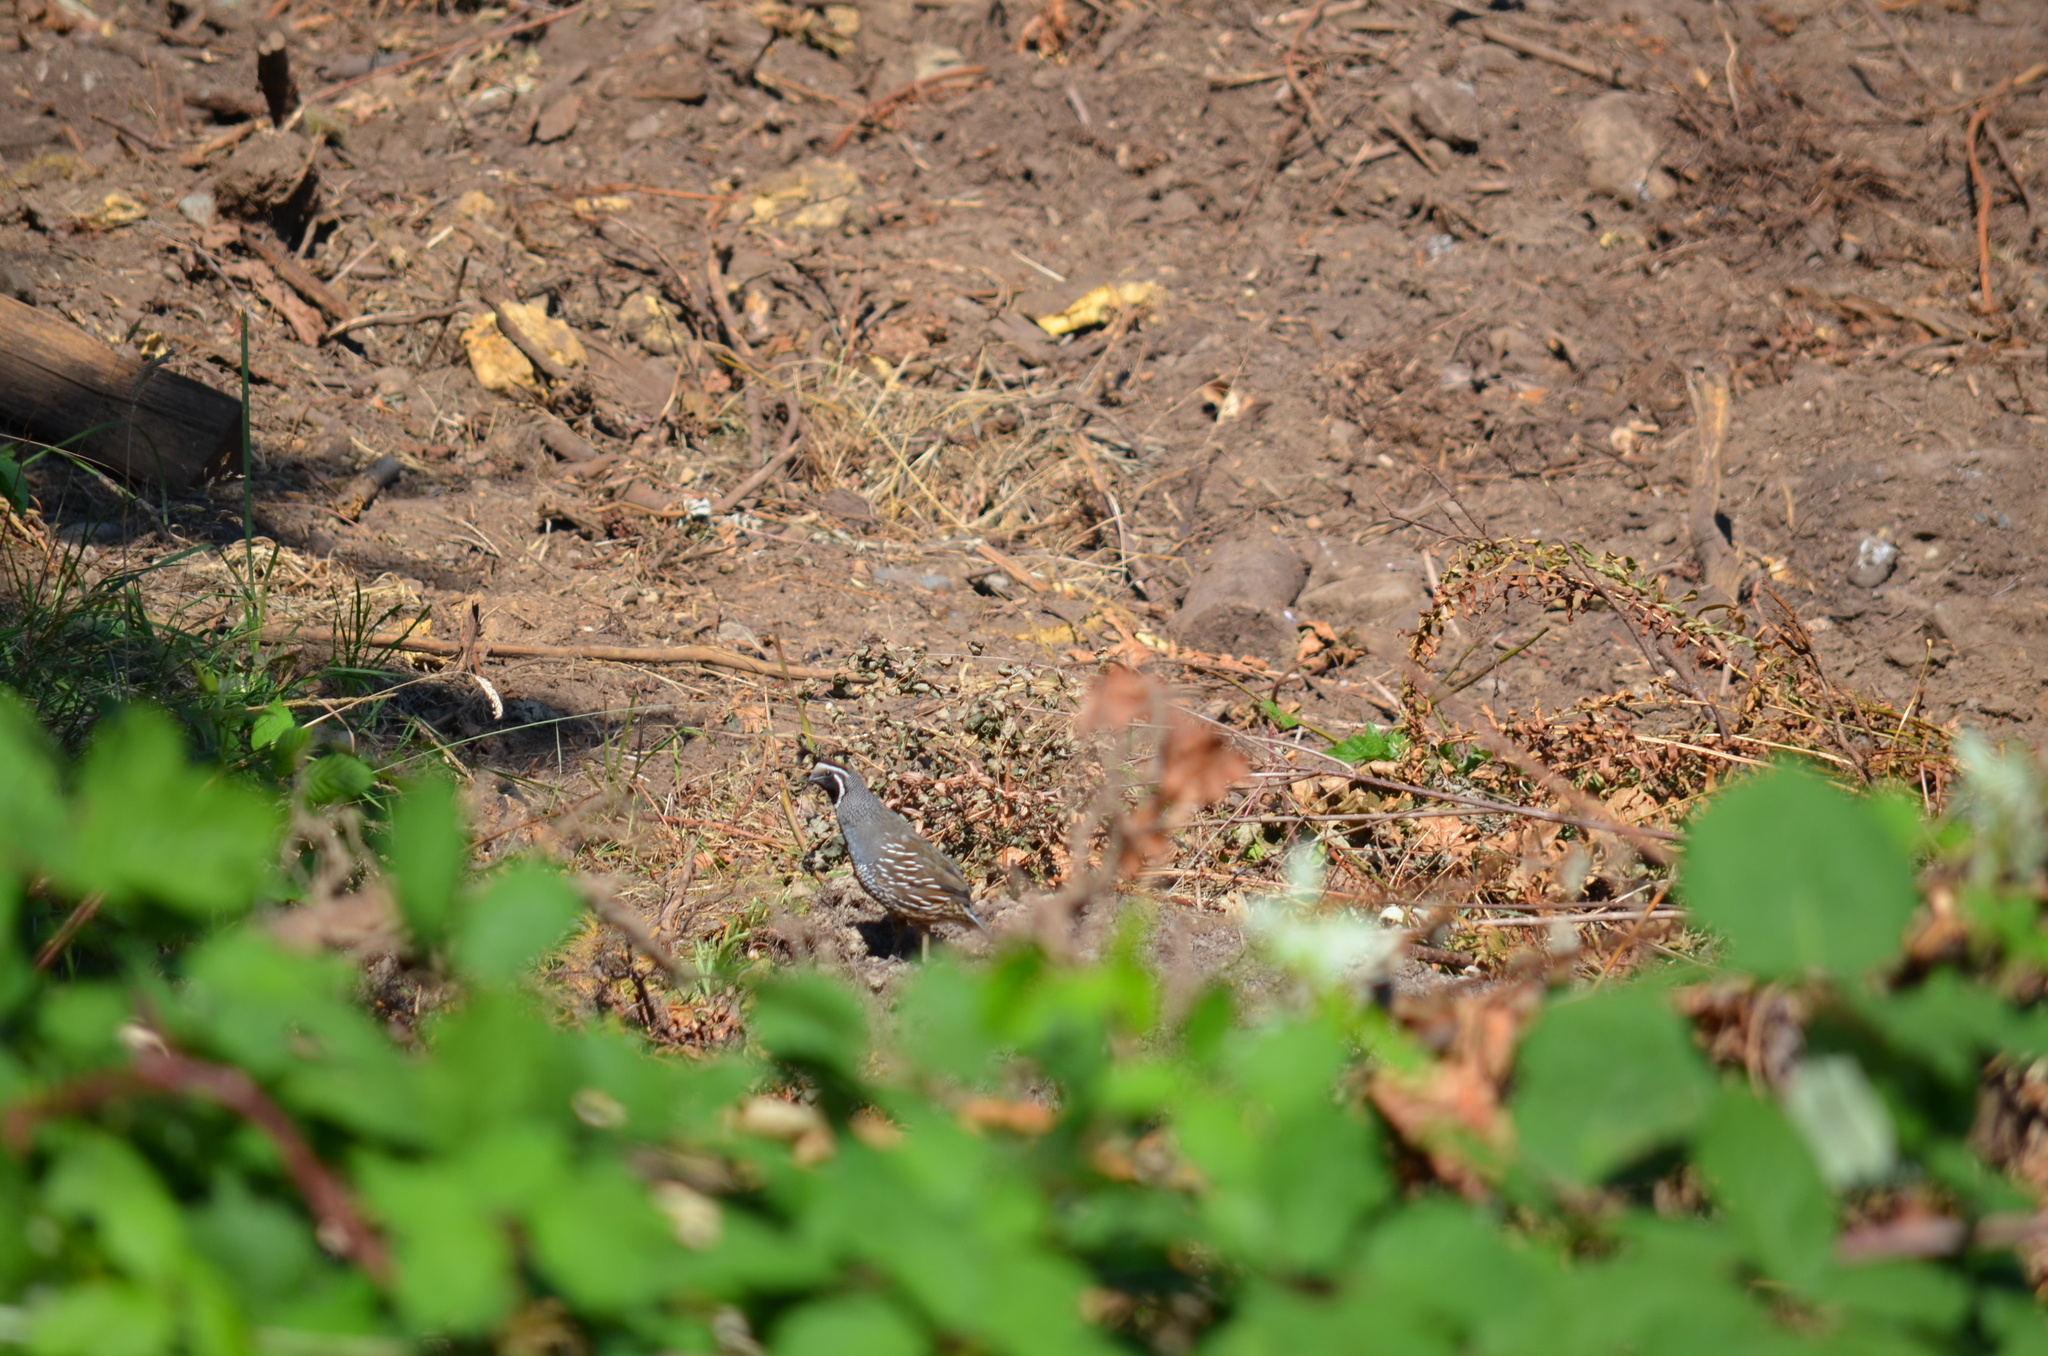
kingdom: Animalia
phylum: Chordata
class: Aves
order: Galliformes
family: Odontophoridae
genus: Callipepla
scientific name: Callipepla californica
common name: California quail
